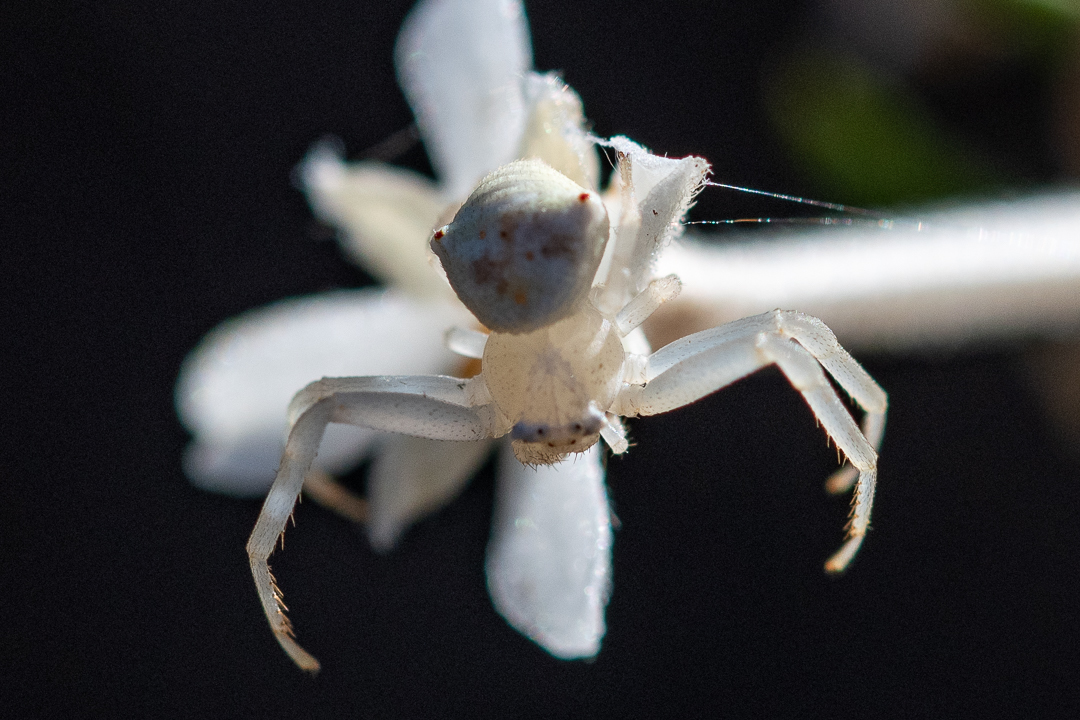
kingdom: Animalia
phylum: Arthropoda
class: Arachnida
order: Araneae
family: Thomisidae
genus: Thomisus
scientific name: Thomisus daradioides
